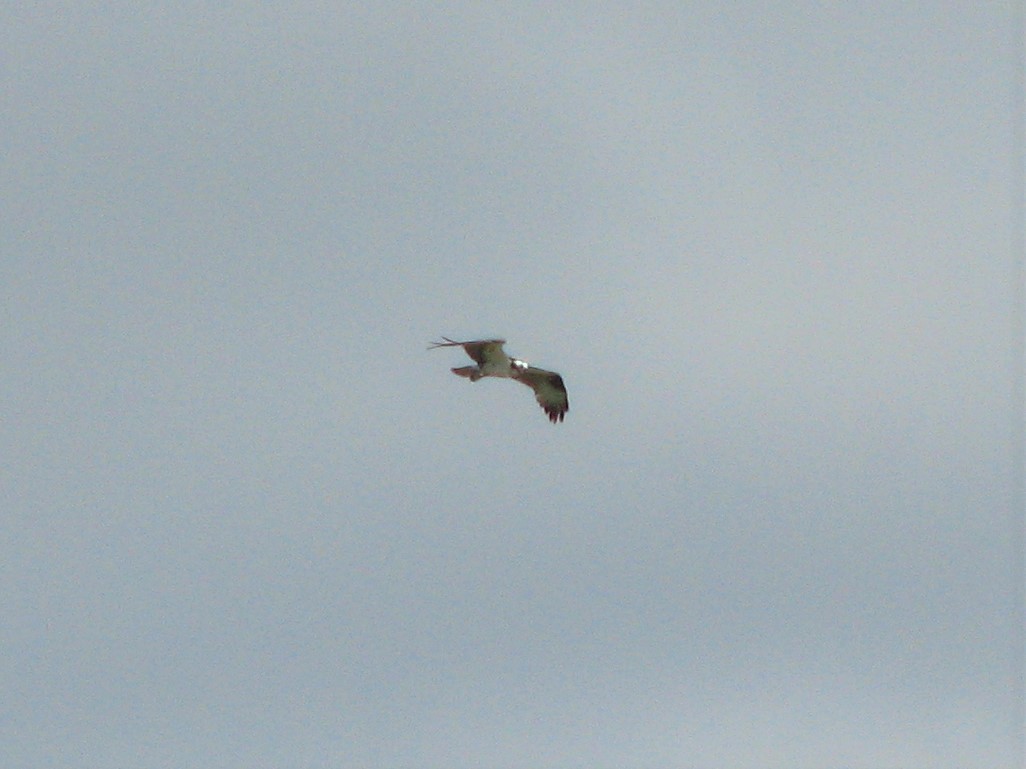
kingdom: Animalia
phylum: Chordata
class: Aves
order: Accipitriformes
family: Pandionidae
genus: Pandion
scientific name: Pandion haliaetus
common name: Osprey
